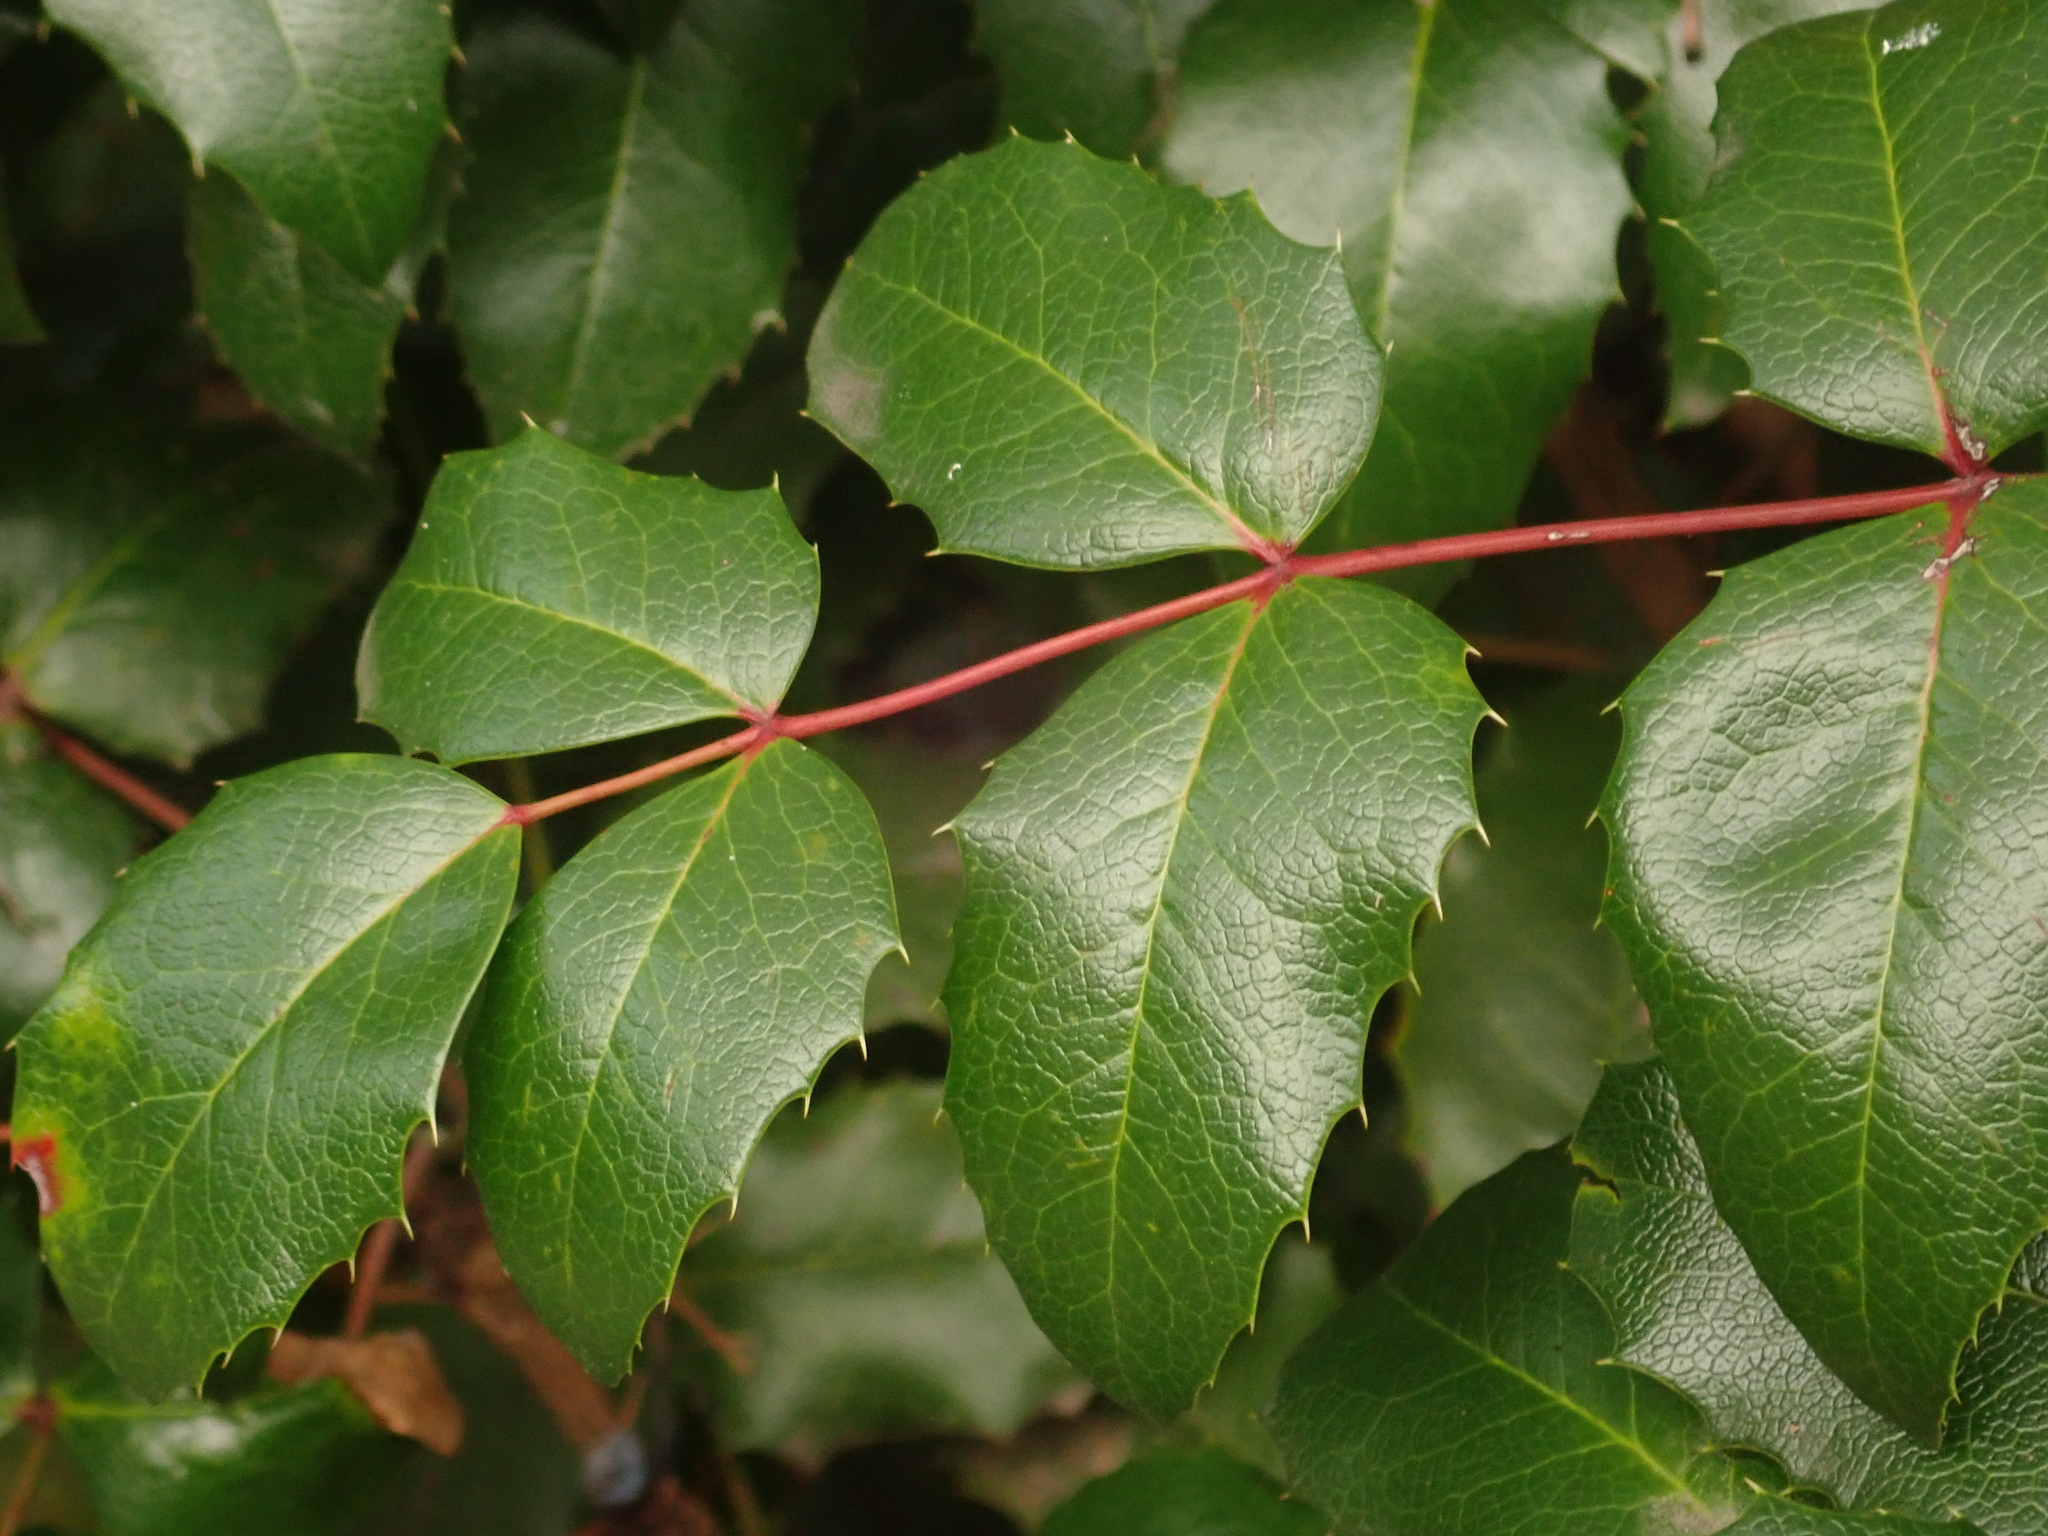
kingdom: Plantae
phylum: Tracheophyta
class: Magnoliopsida
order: Ranunculales
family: Berberidaceae
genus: Mahonia
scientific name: Mahonia aquifolium
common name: Oregon-grape
